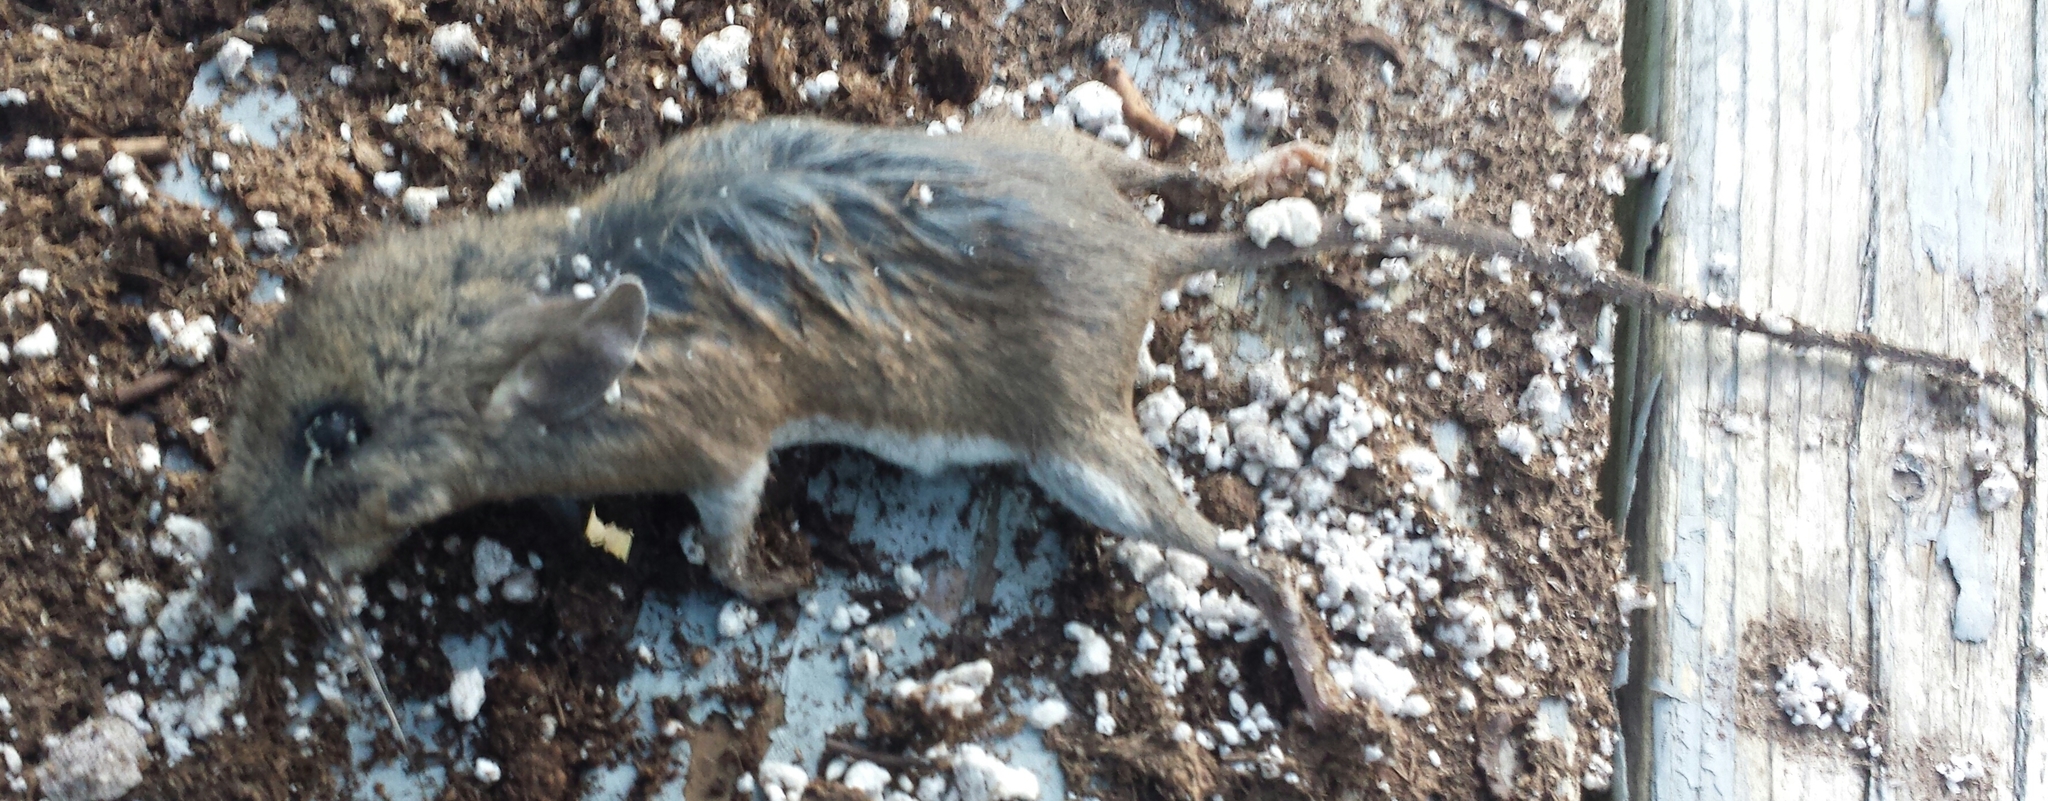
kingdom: Animalia
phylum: Chordata
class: Mammalia
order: Rodentia
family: Cricetidae
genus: Peromyscus
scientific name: Peromyscus
